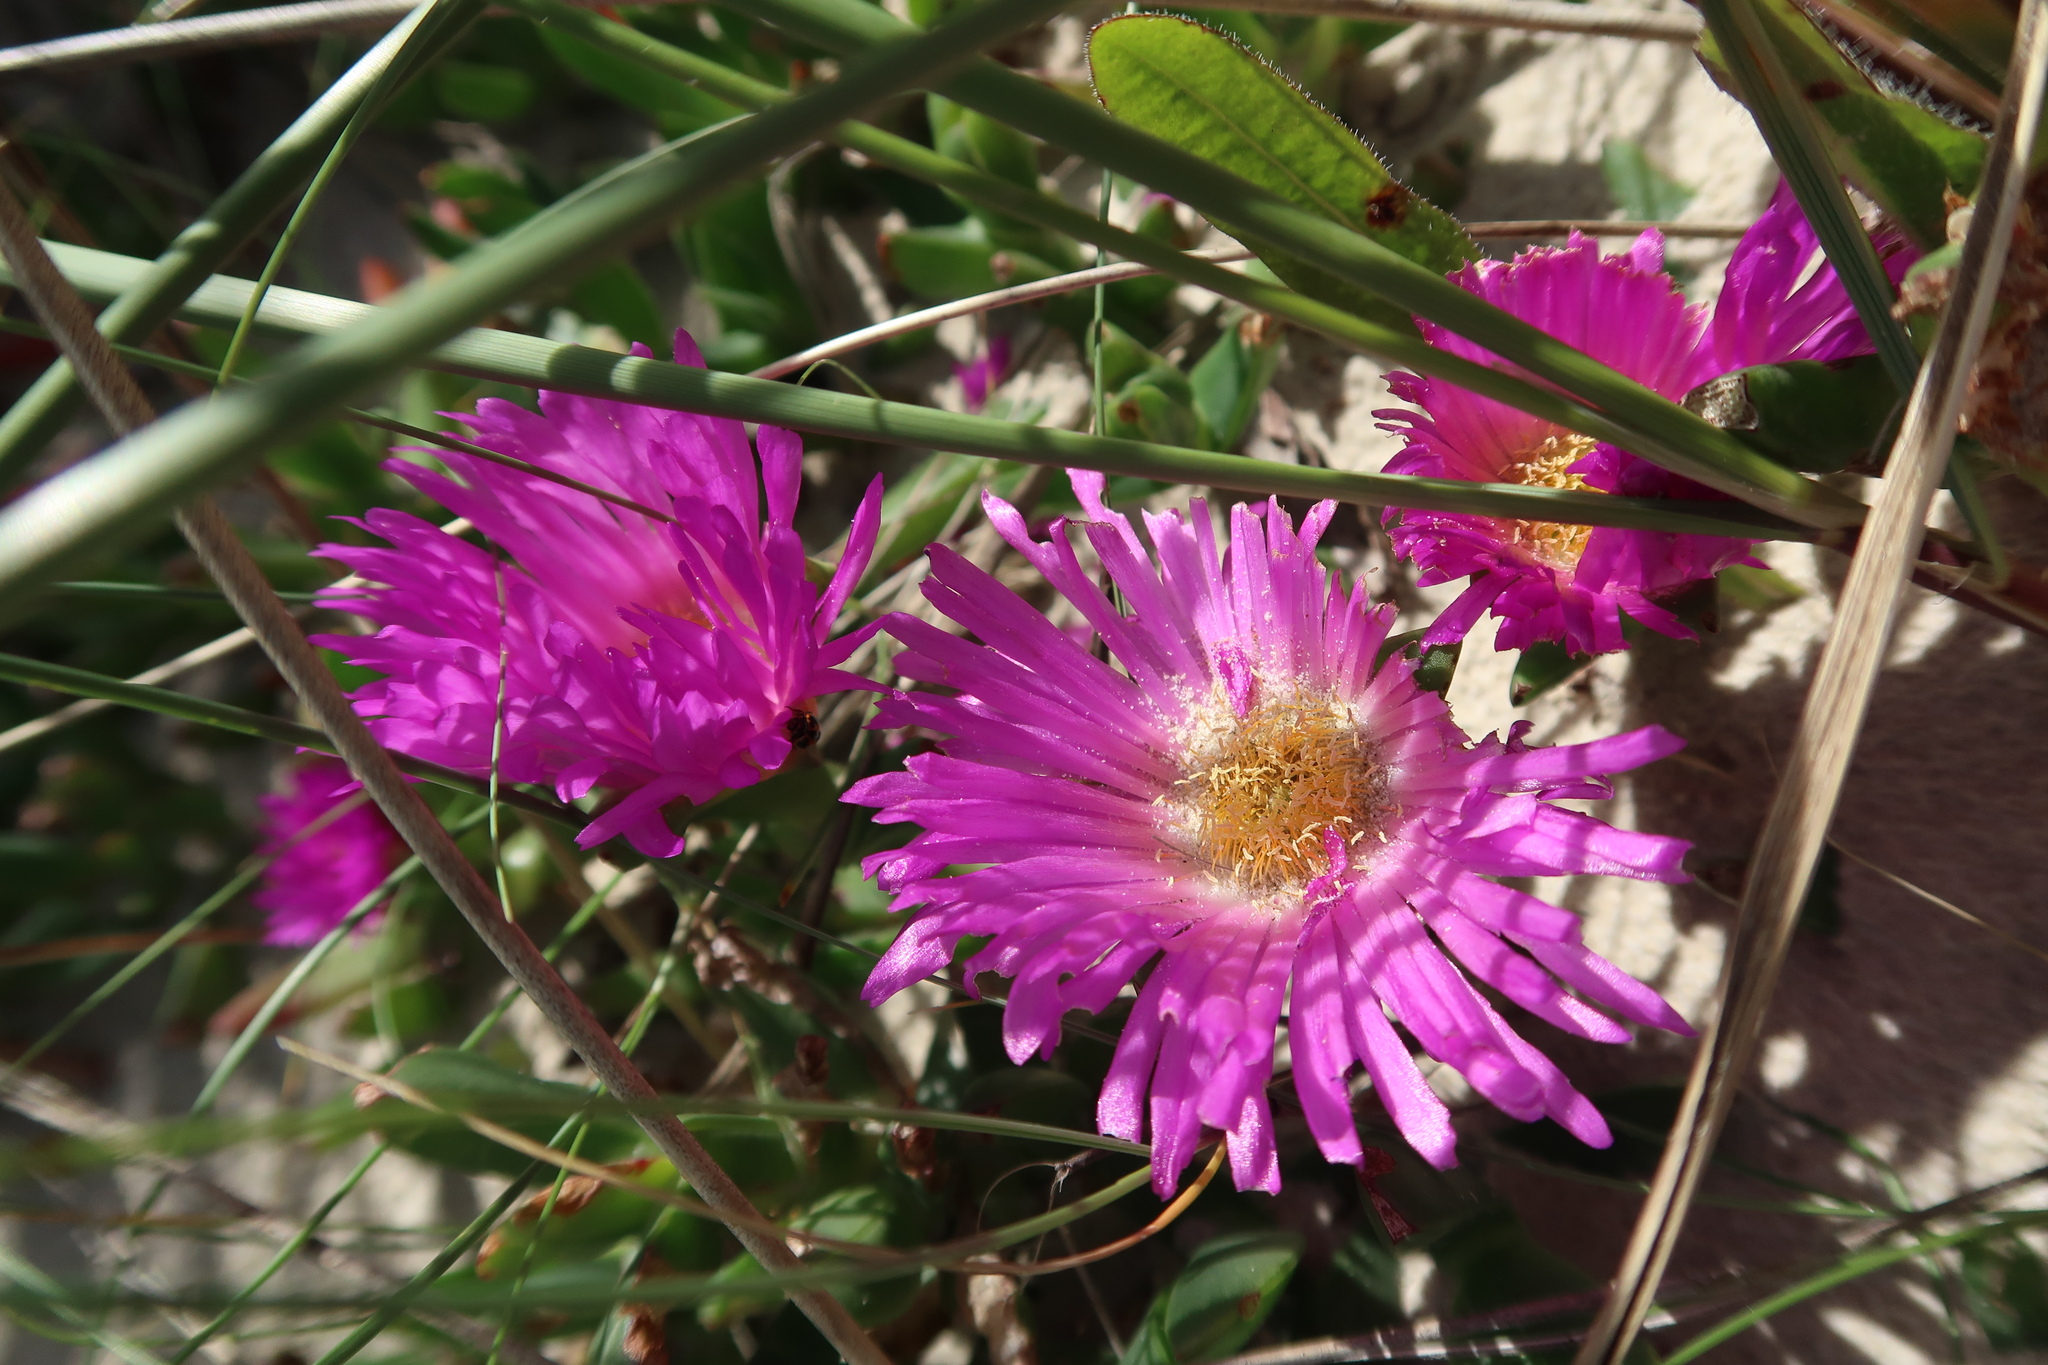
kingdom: Plantae
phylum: Tracheophyta
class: Magnoliopsida
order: Caryophyllales
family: Aizoaceae
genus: Carpobrotus
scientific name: Carpobrotus rossii
